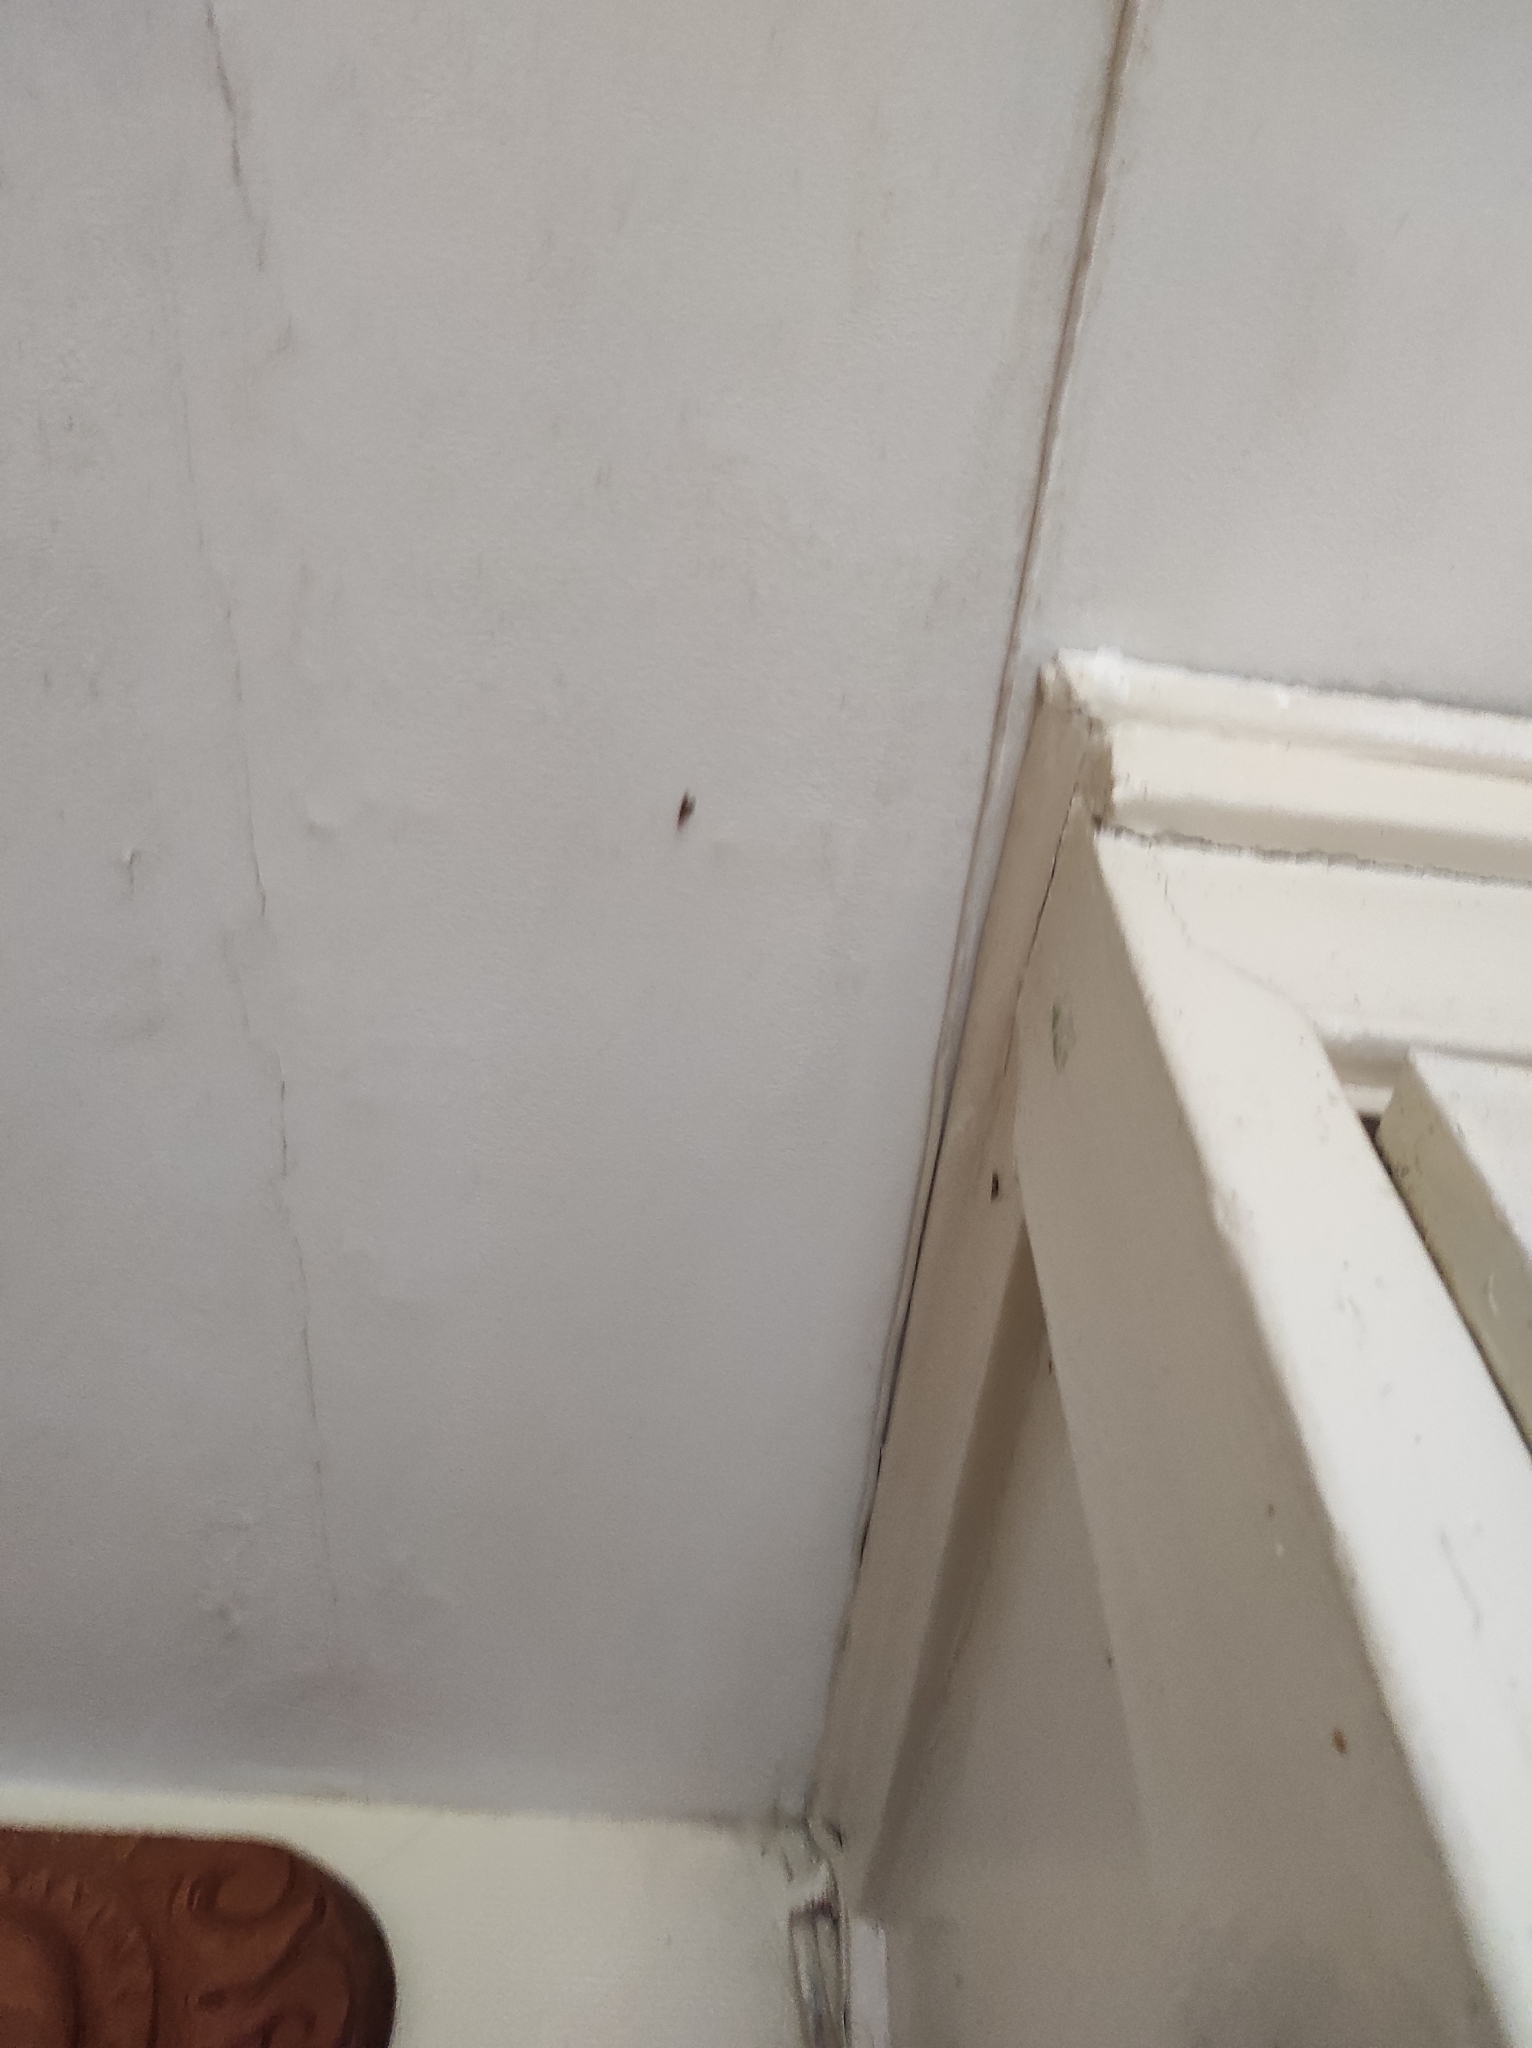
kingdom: Animalia
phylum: Arthropoda
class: Insecta
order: Lepidoptera
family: Pyralidae
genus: Plodia
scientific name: Plodia interpunctella
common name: Indian meal moth
